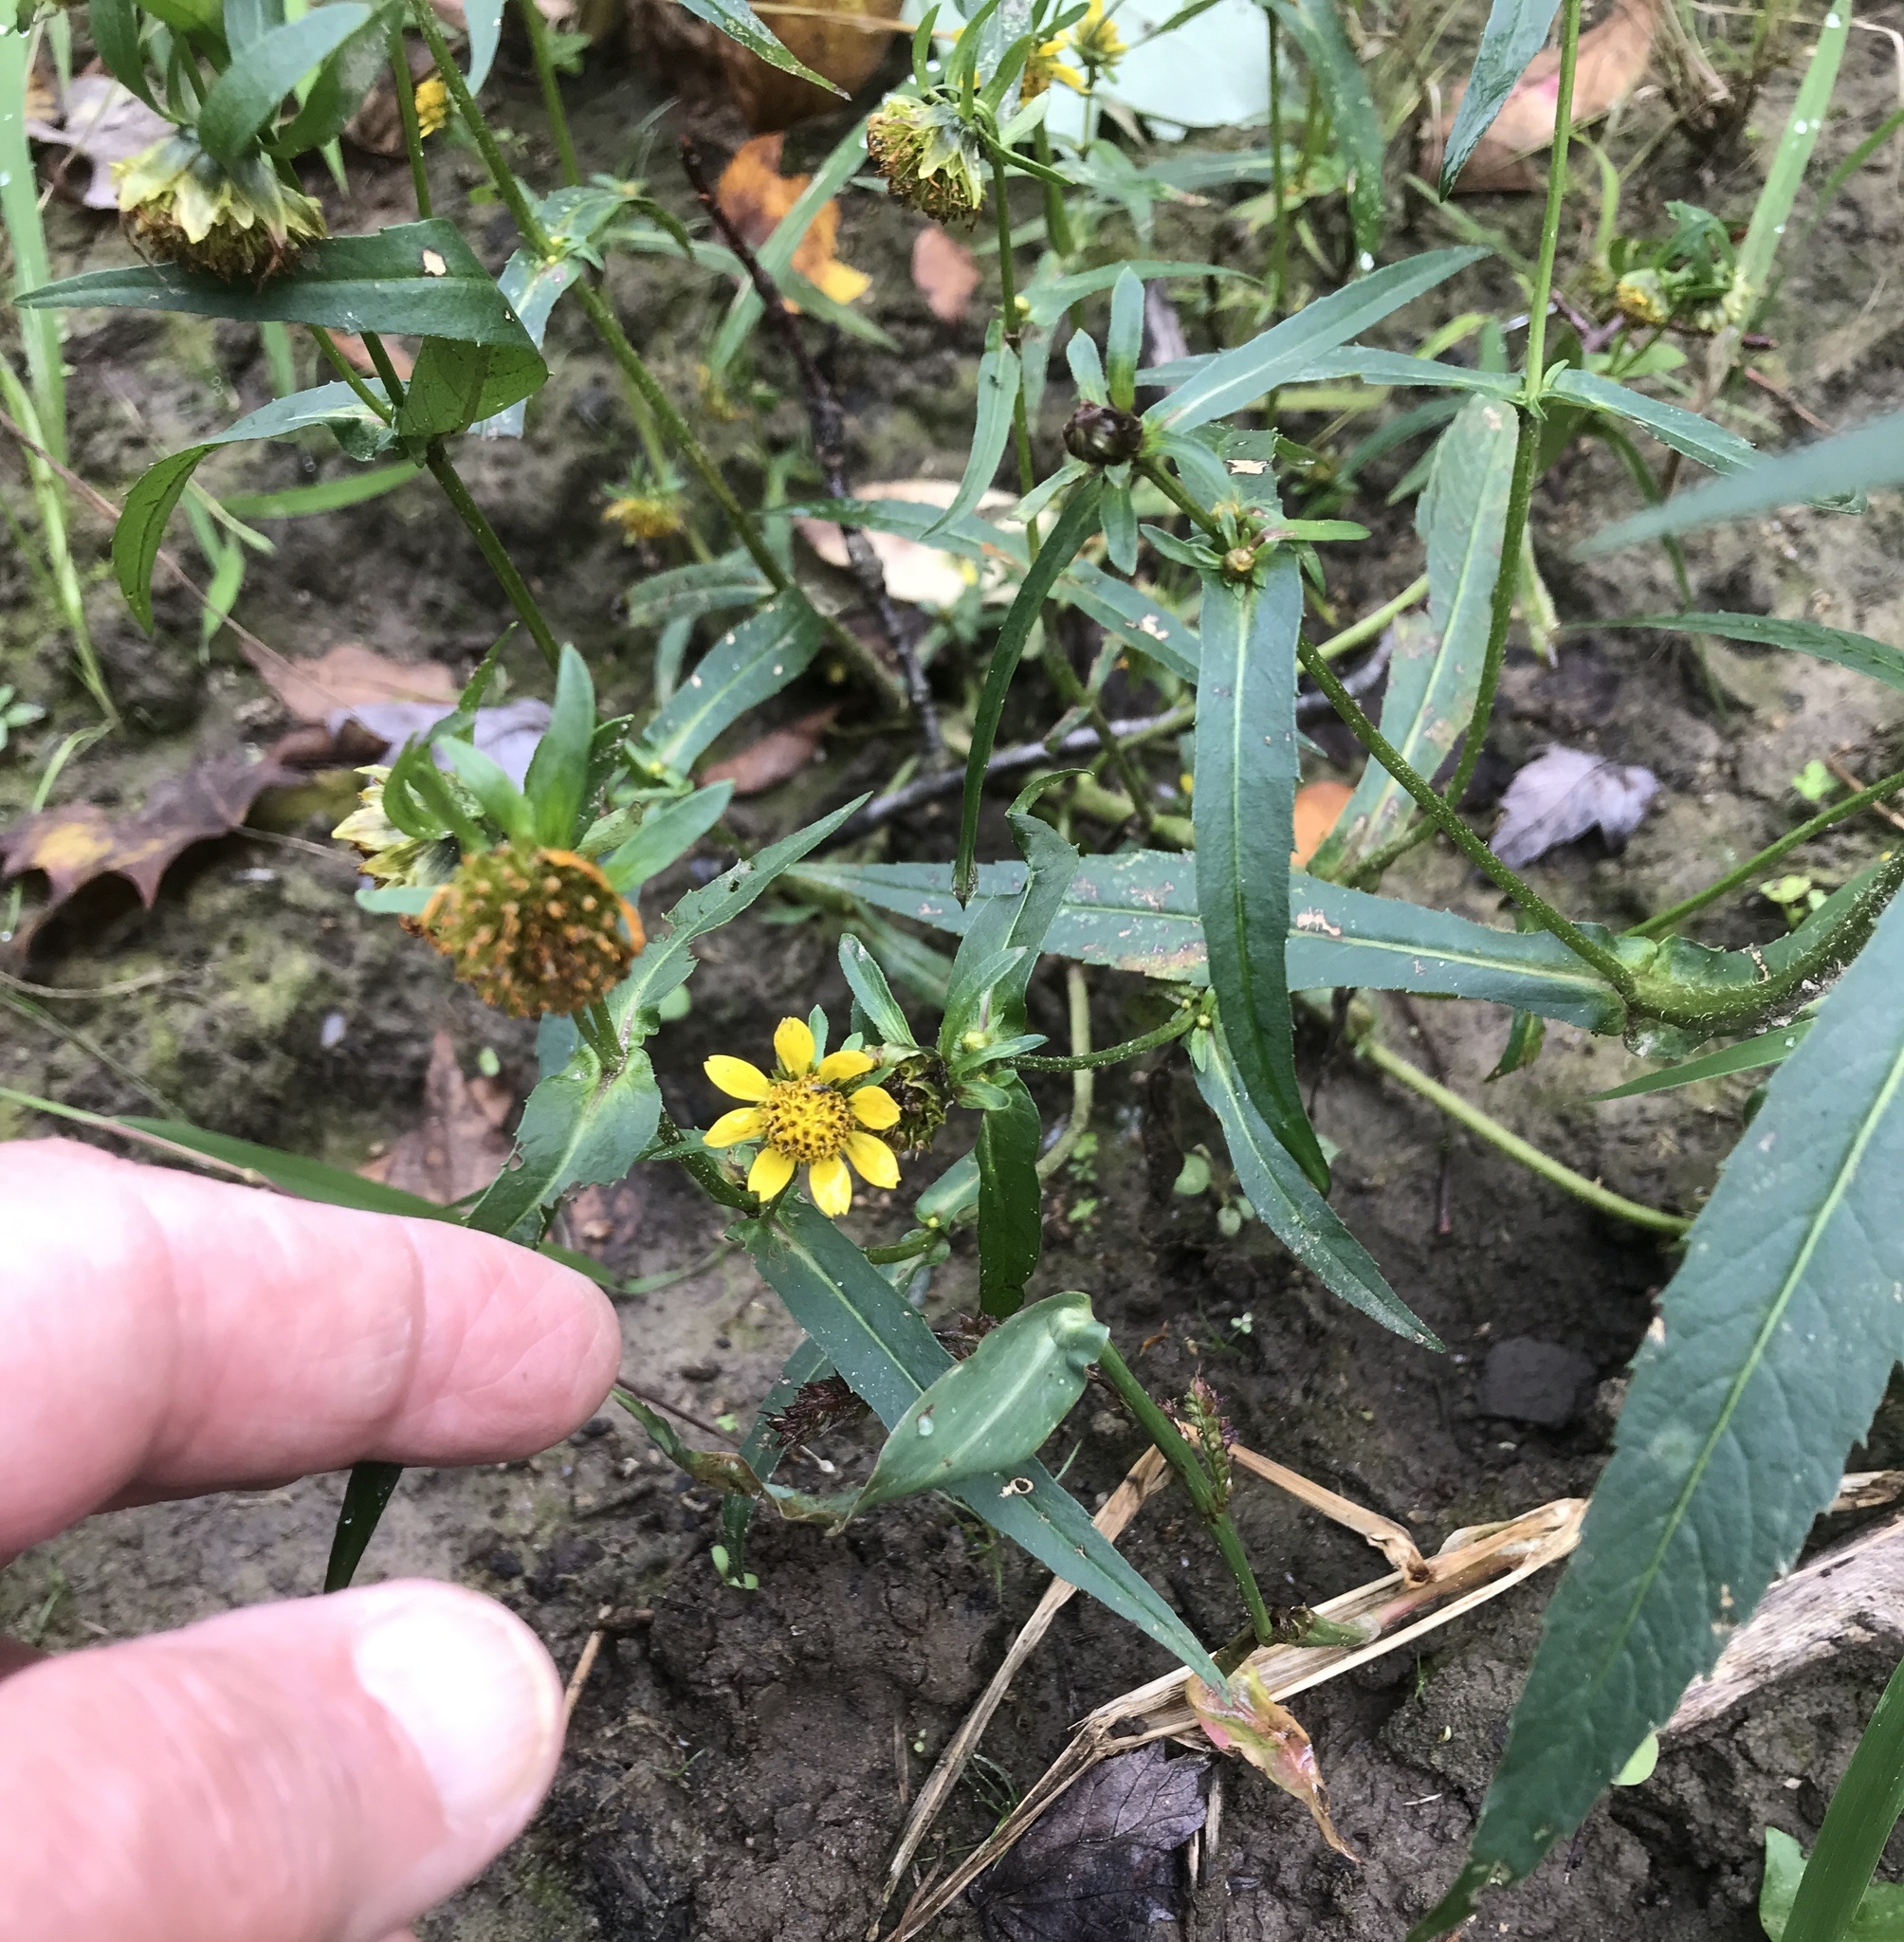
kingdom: Plantae
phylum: Tracheophyta
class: Magnoliopsida
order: Asterales
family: Asteraceae
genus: Bidens
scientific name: Bidens cernua
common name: Nodding bur-marigold
